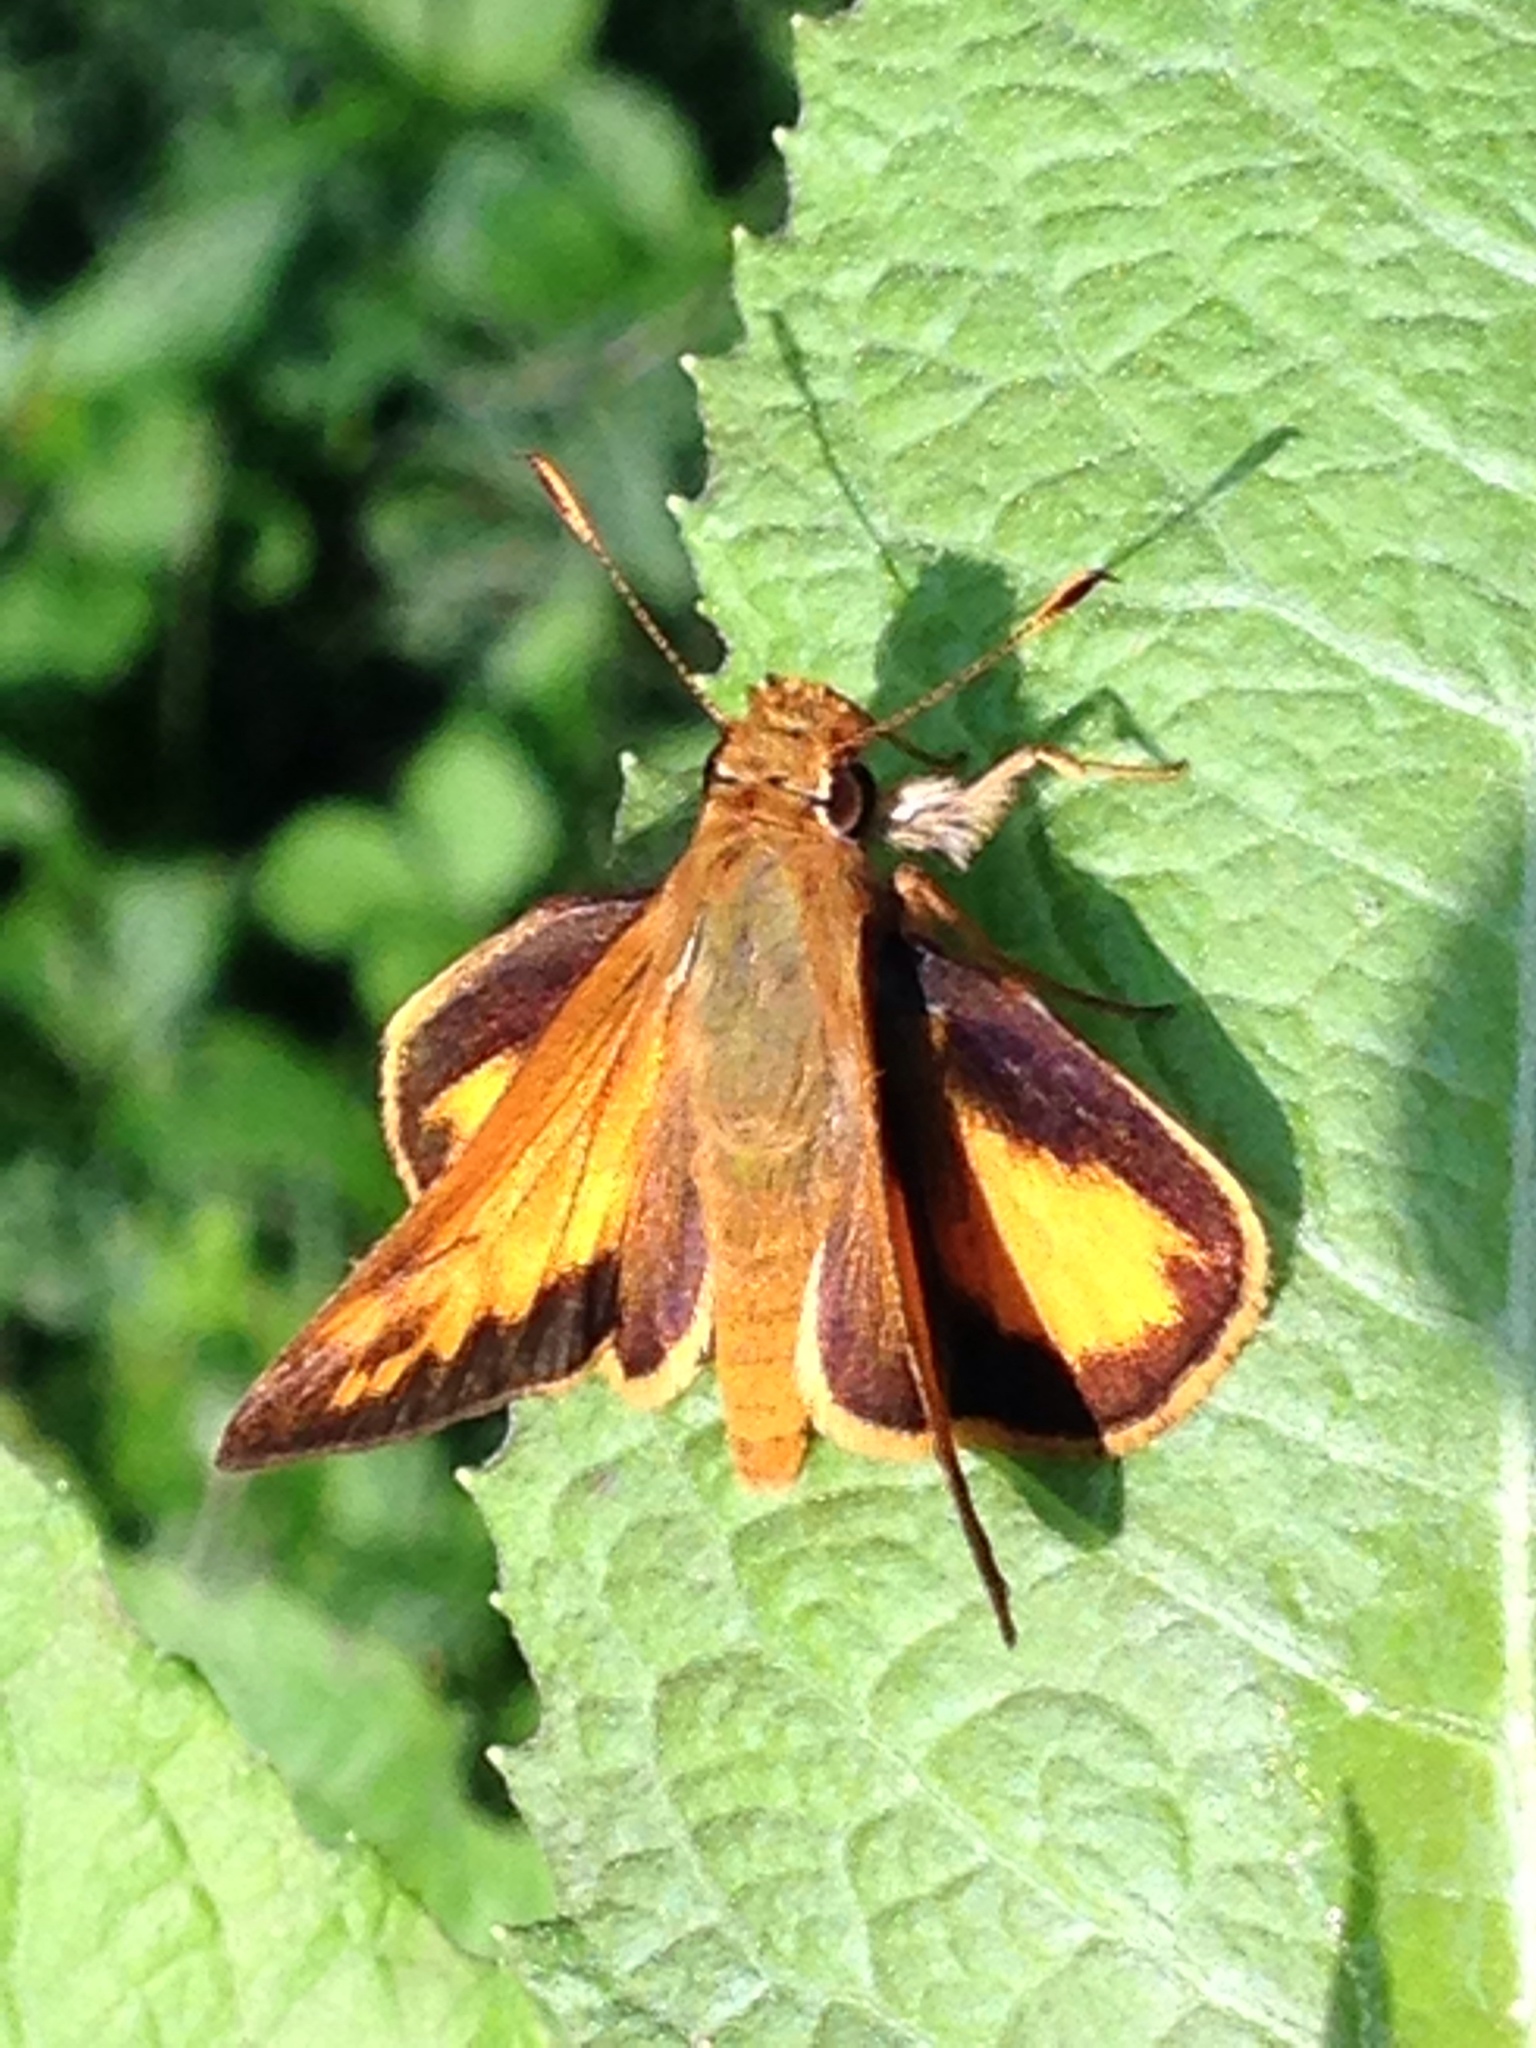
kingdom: Animalia
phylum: Arthropoda
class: Insecta
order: Lepidoptera
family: Hesperiidae
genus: Lon
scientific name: Lon zabulon
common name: Zabulon skipper
